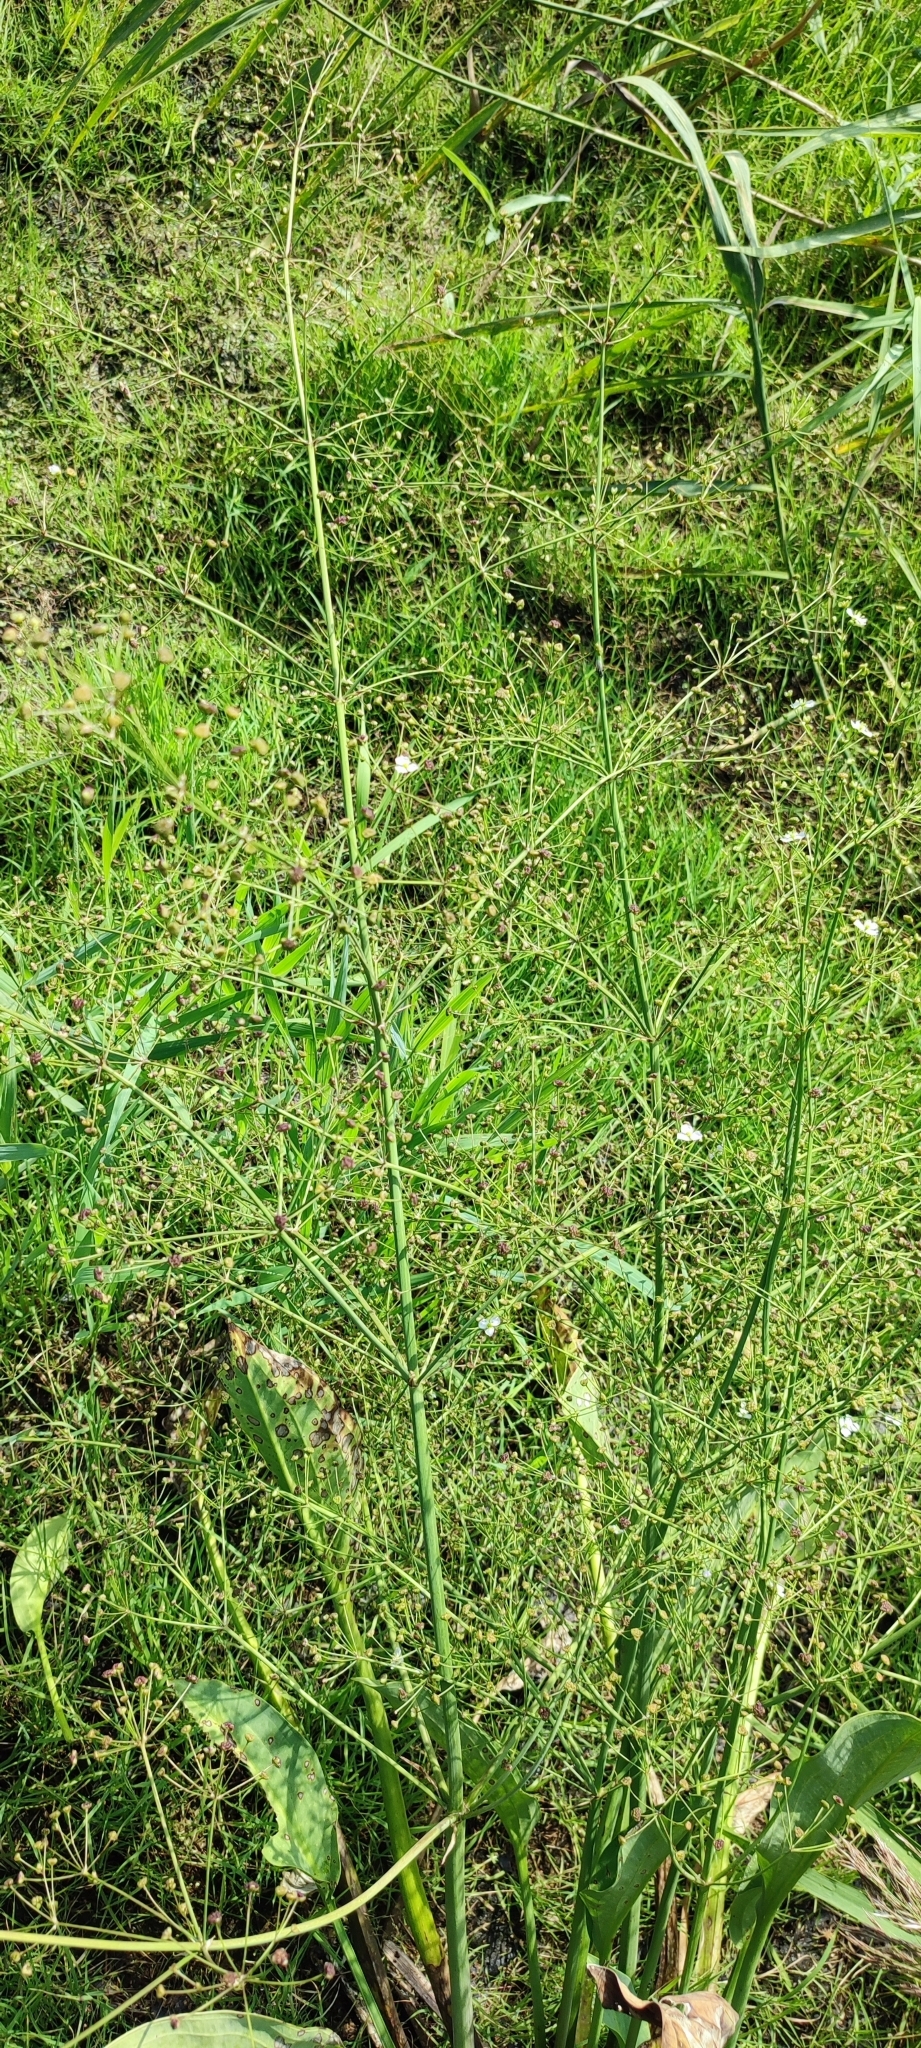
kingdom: Plantae
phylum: Tracheophyta
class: Liliopsida
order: Alismatales
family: Alismataceae
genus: Alisma
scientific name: Alisma plantago-aquatica
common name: Water-plantain
